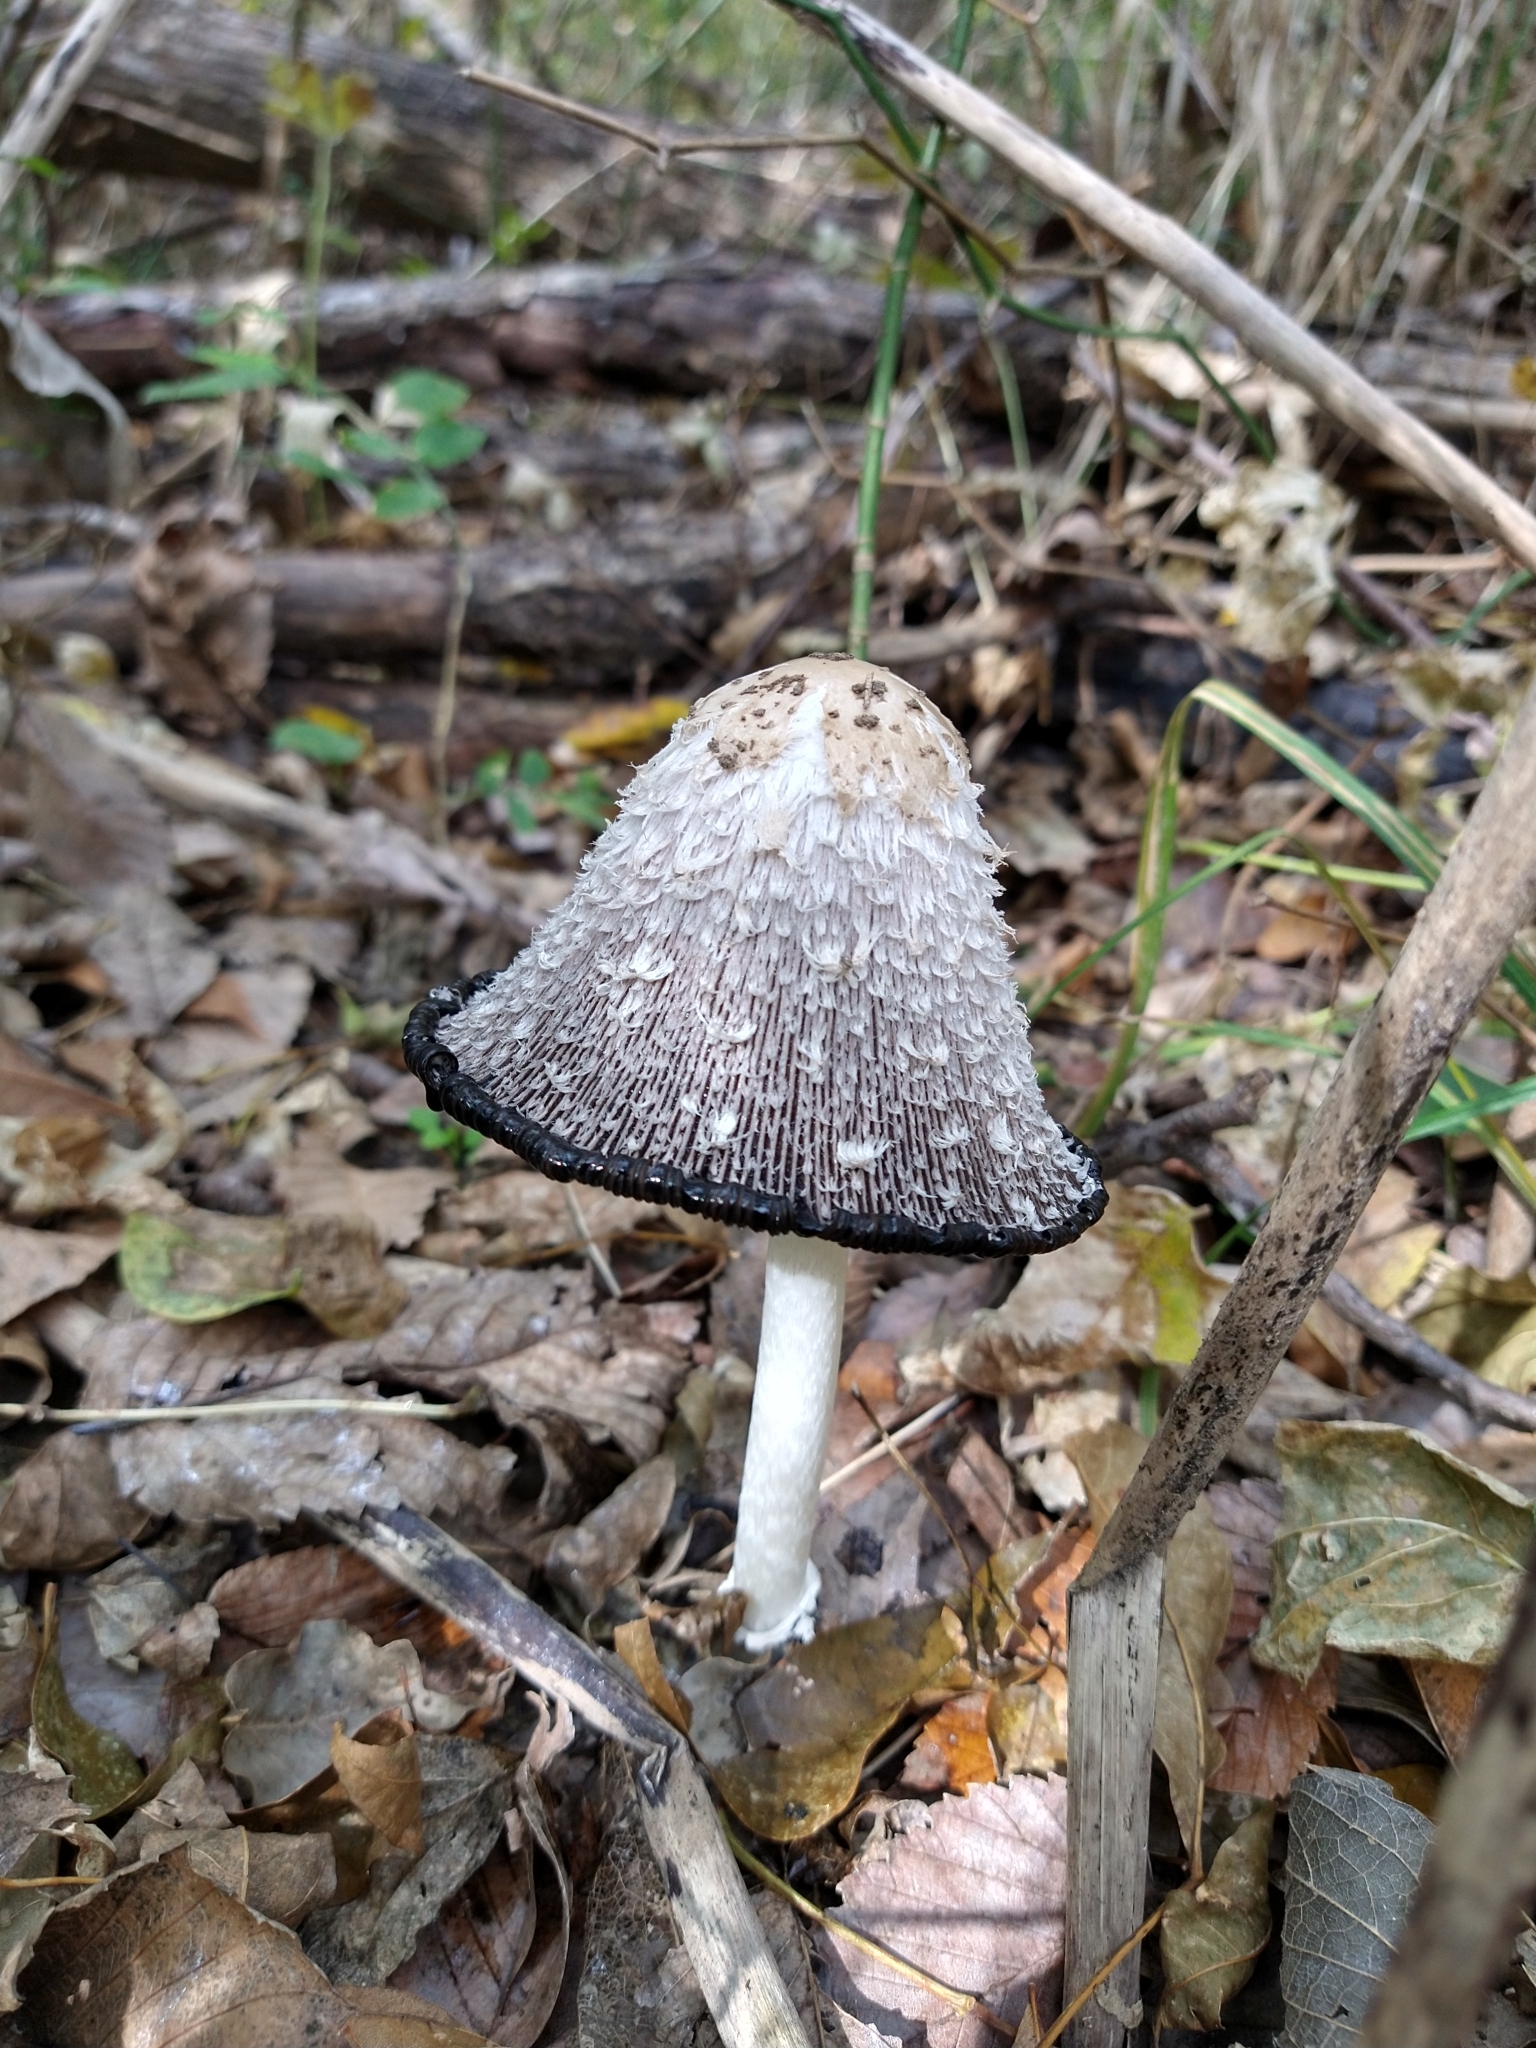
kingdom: Fungi
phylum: Basidiomycota
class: Agaricomycetes
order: Agaricales
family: Agaricaceae
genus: Coprinus
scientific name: Coprinus comatus
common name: Lawyer's wig
